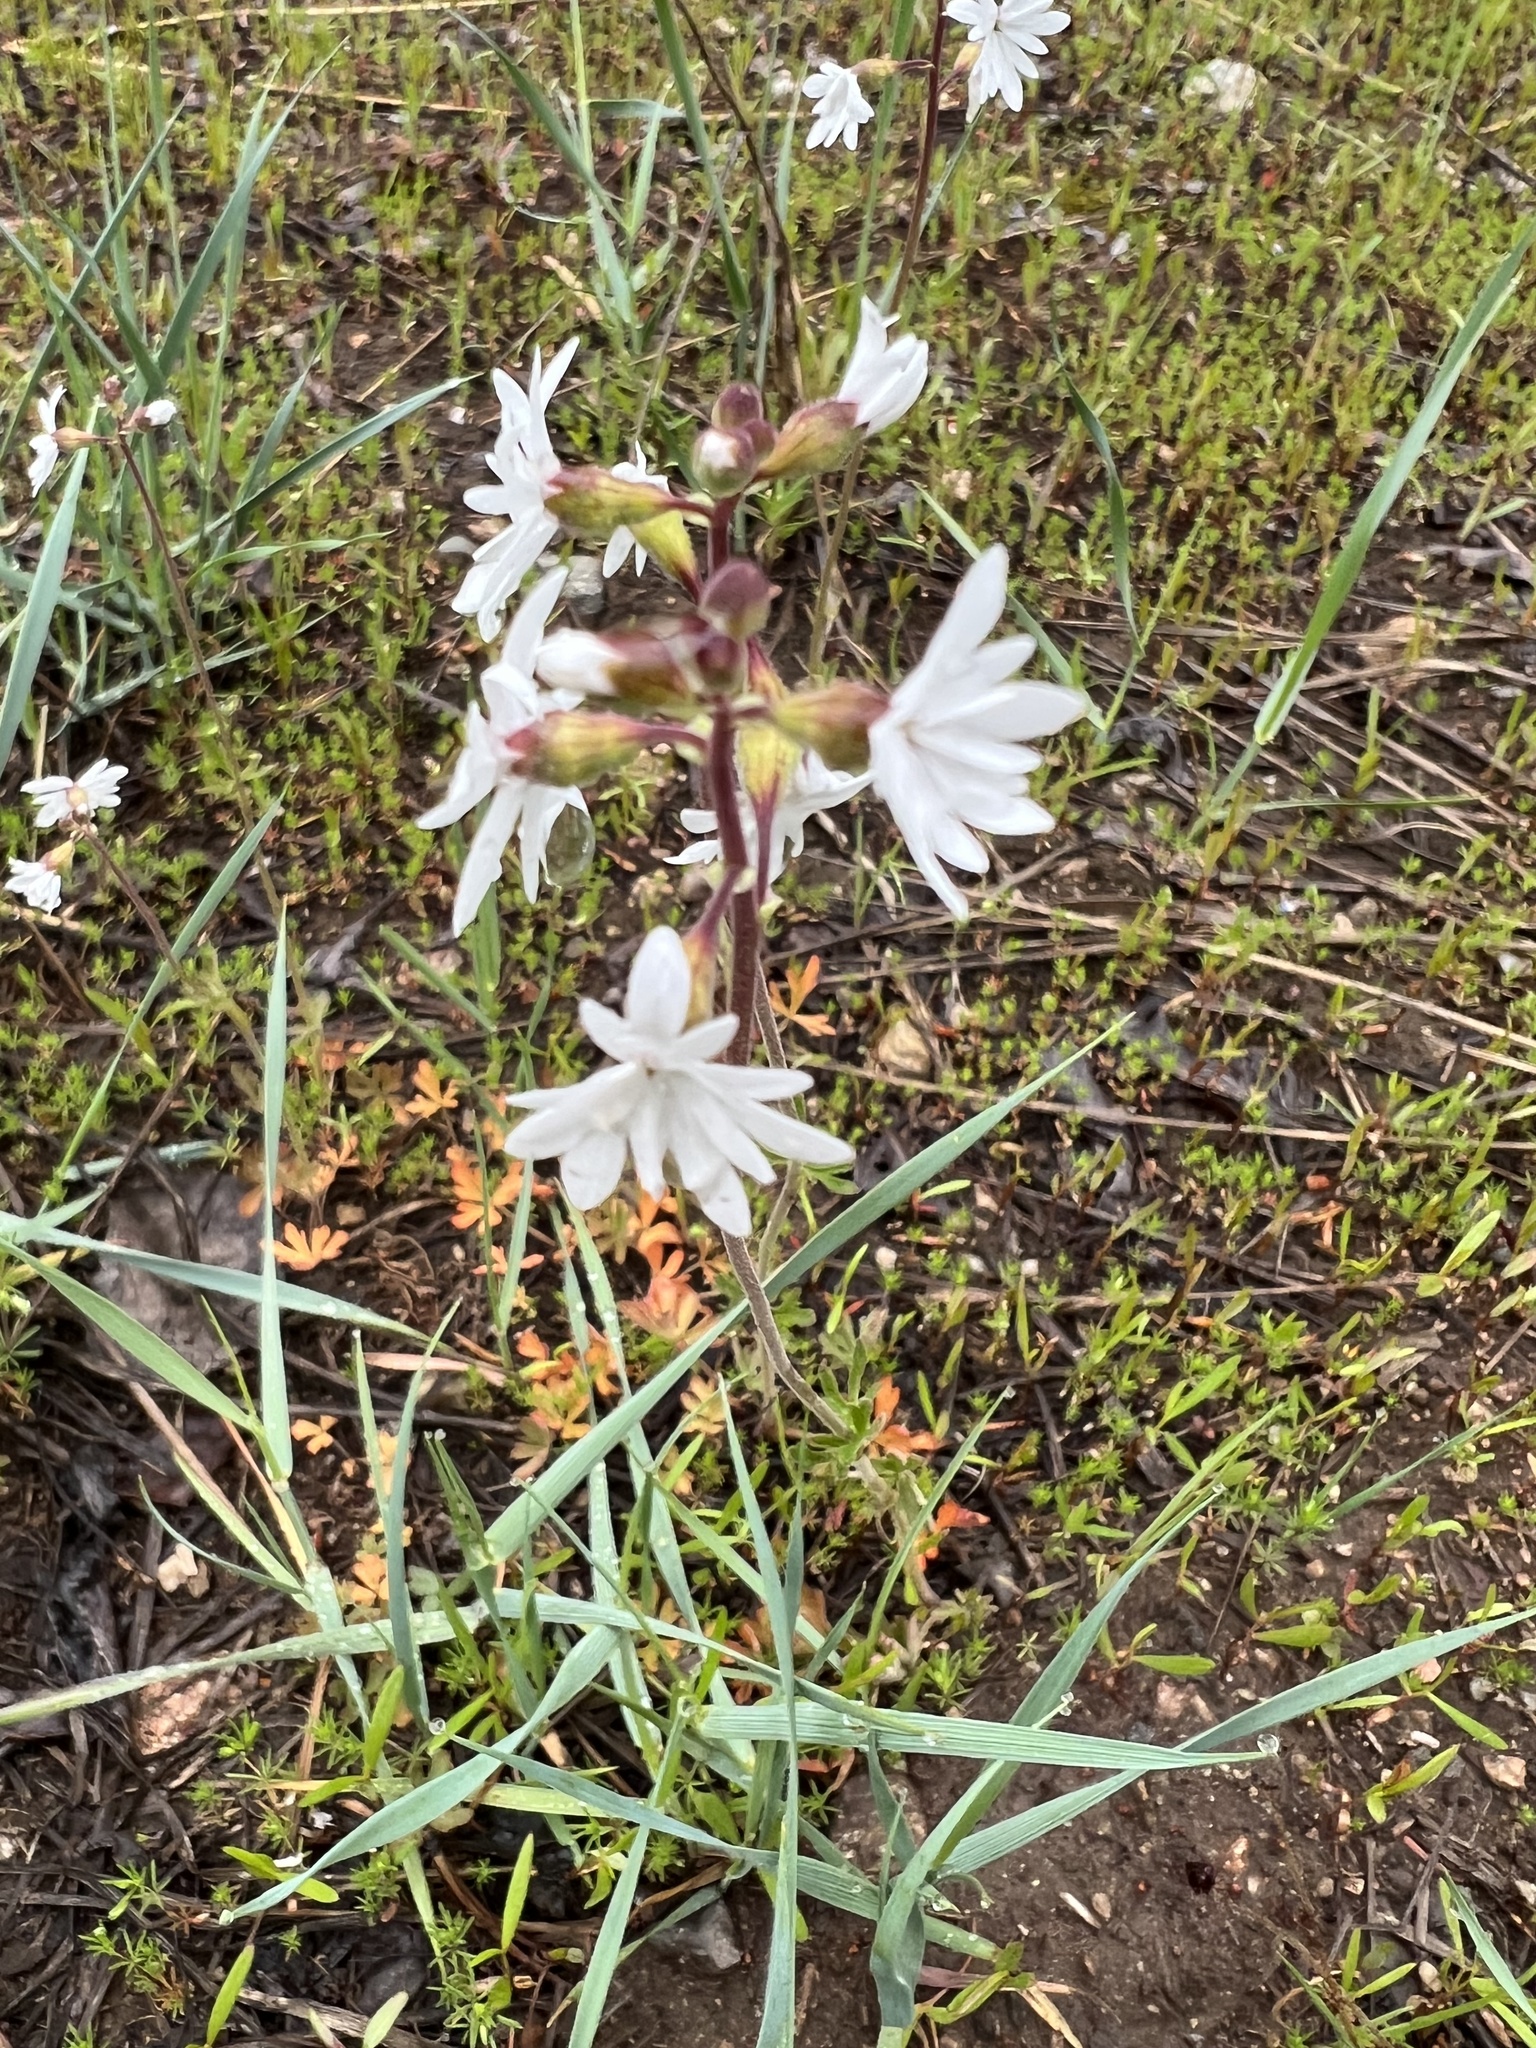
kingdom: Plantae
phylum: Tracheophyta
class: Magnoliopsida
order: Saxifragales
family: Saxifragaceae
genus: Lithophragma
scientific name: Lithophragma parviflorum
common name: Small-flowered fringe-cup
